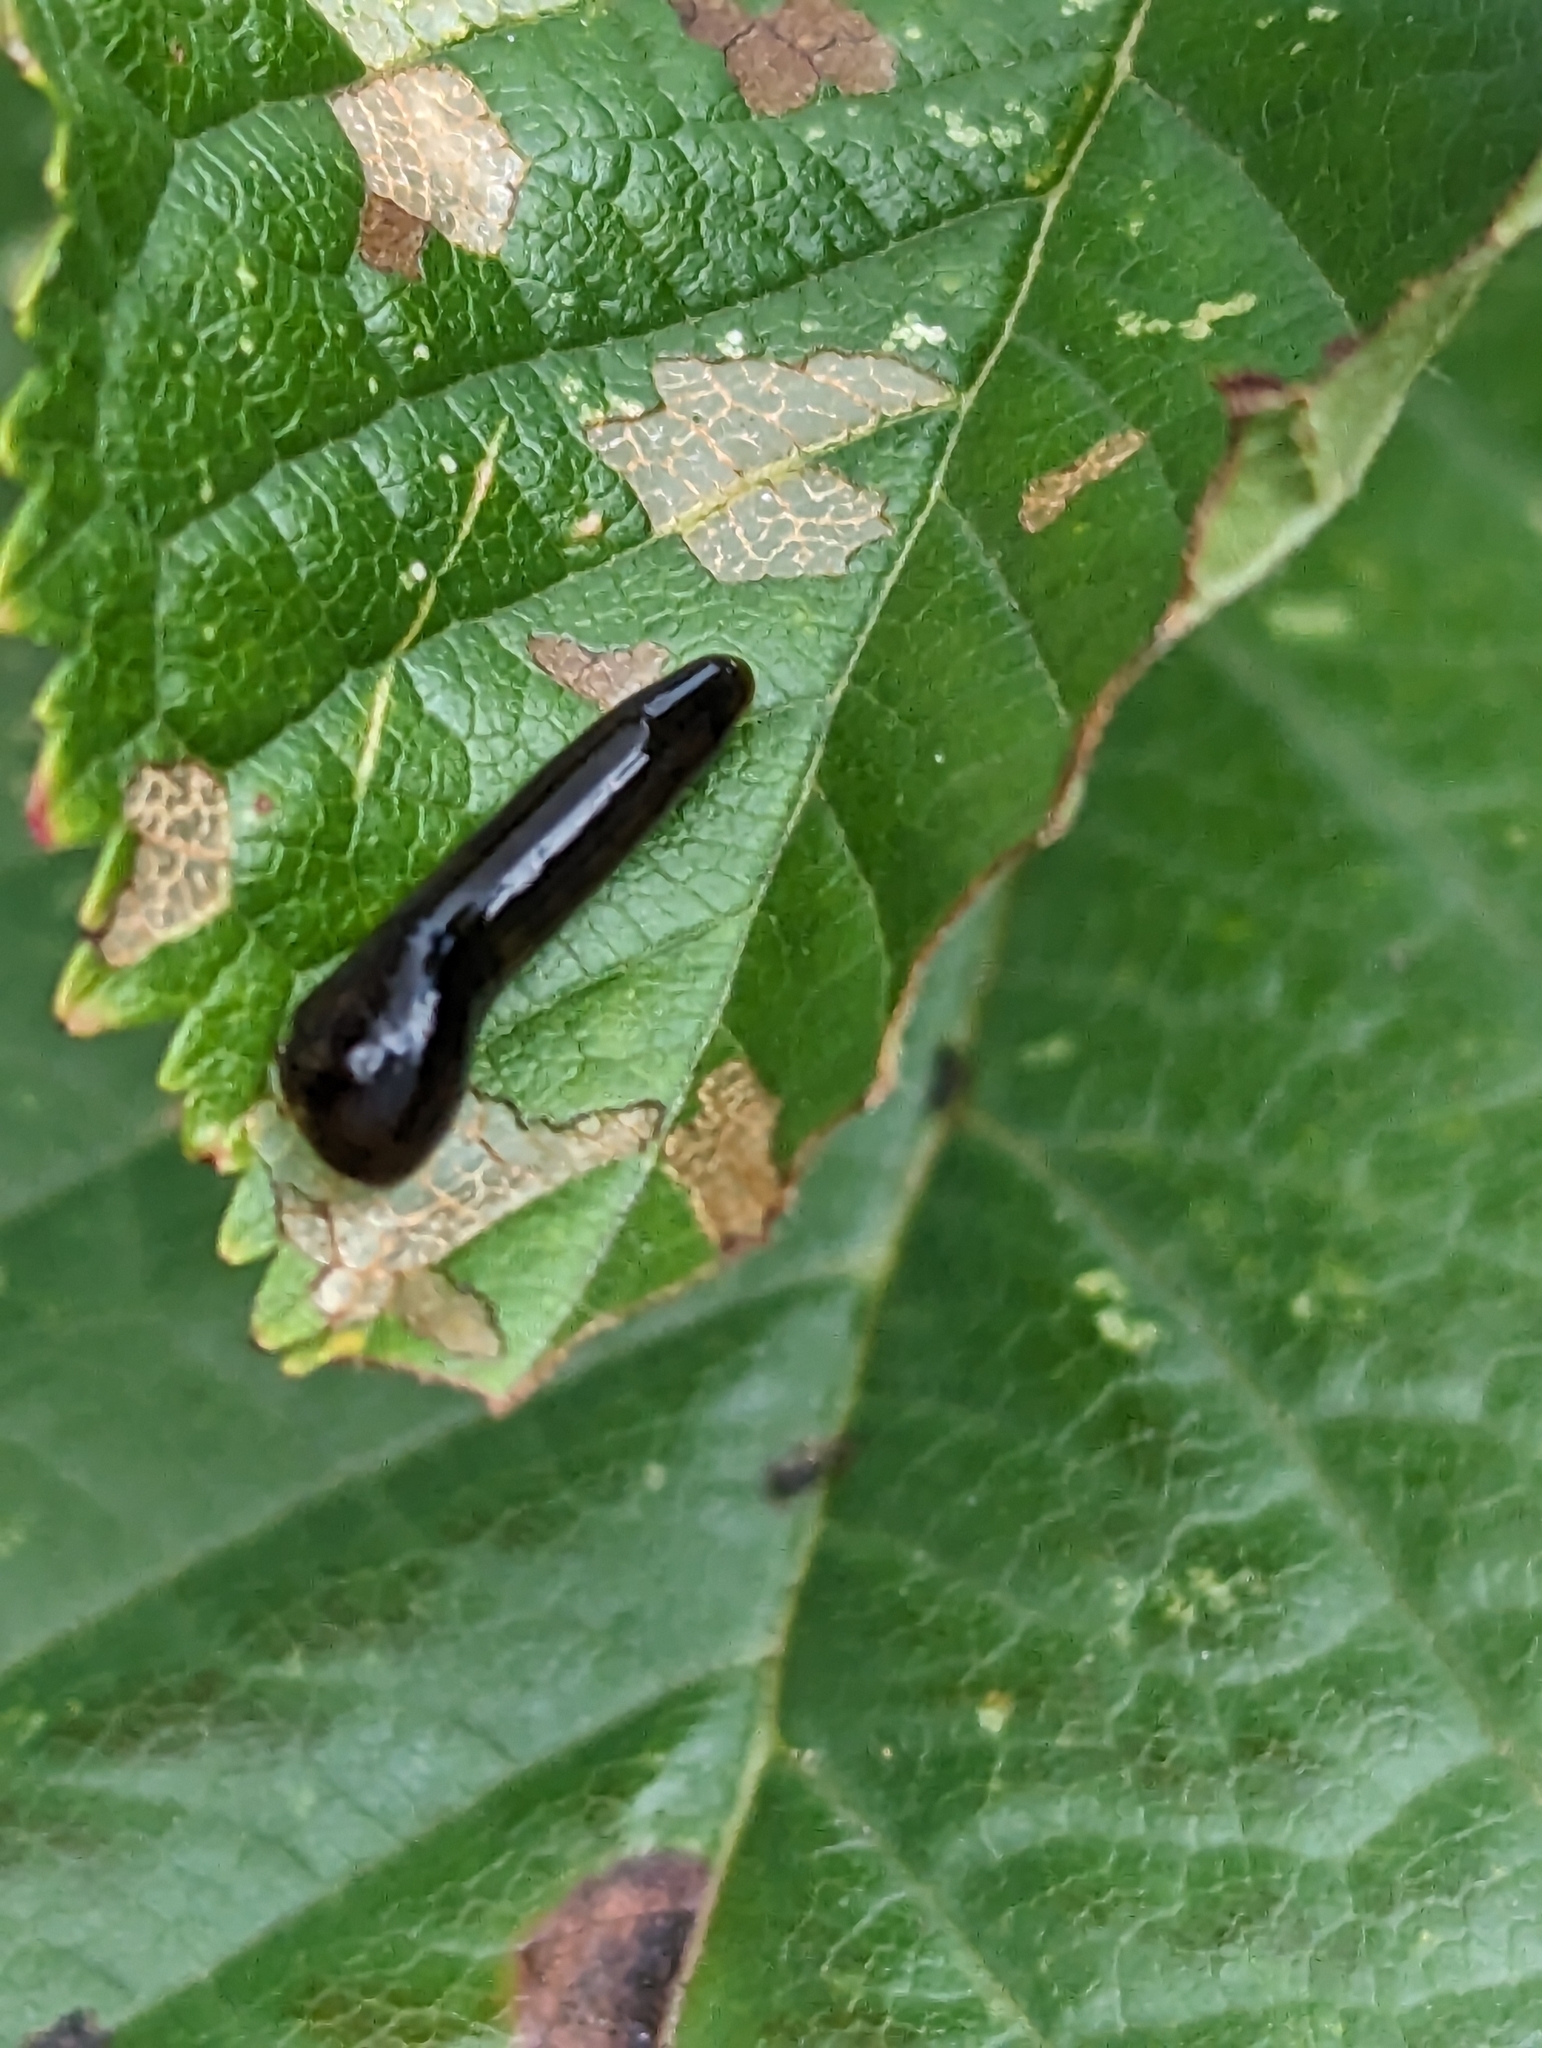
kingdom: Animalia
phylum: Arthropoda
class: Insecta
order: Hymenoptera
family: Tenthredinidae
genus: Caliroa
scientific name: Caliroa cerasi
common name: Pear sawfly
